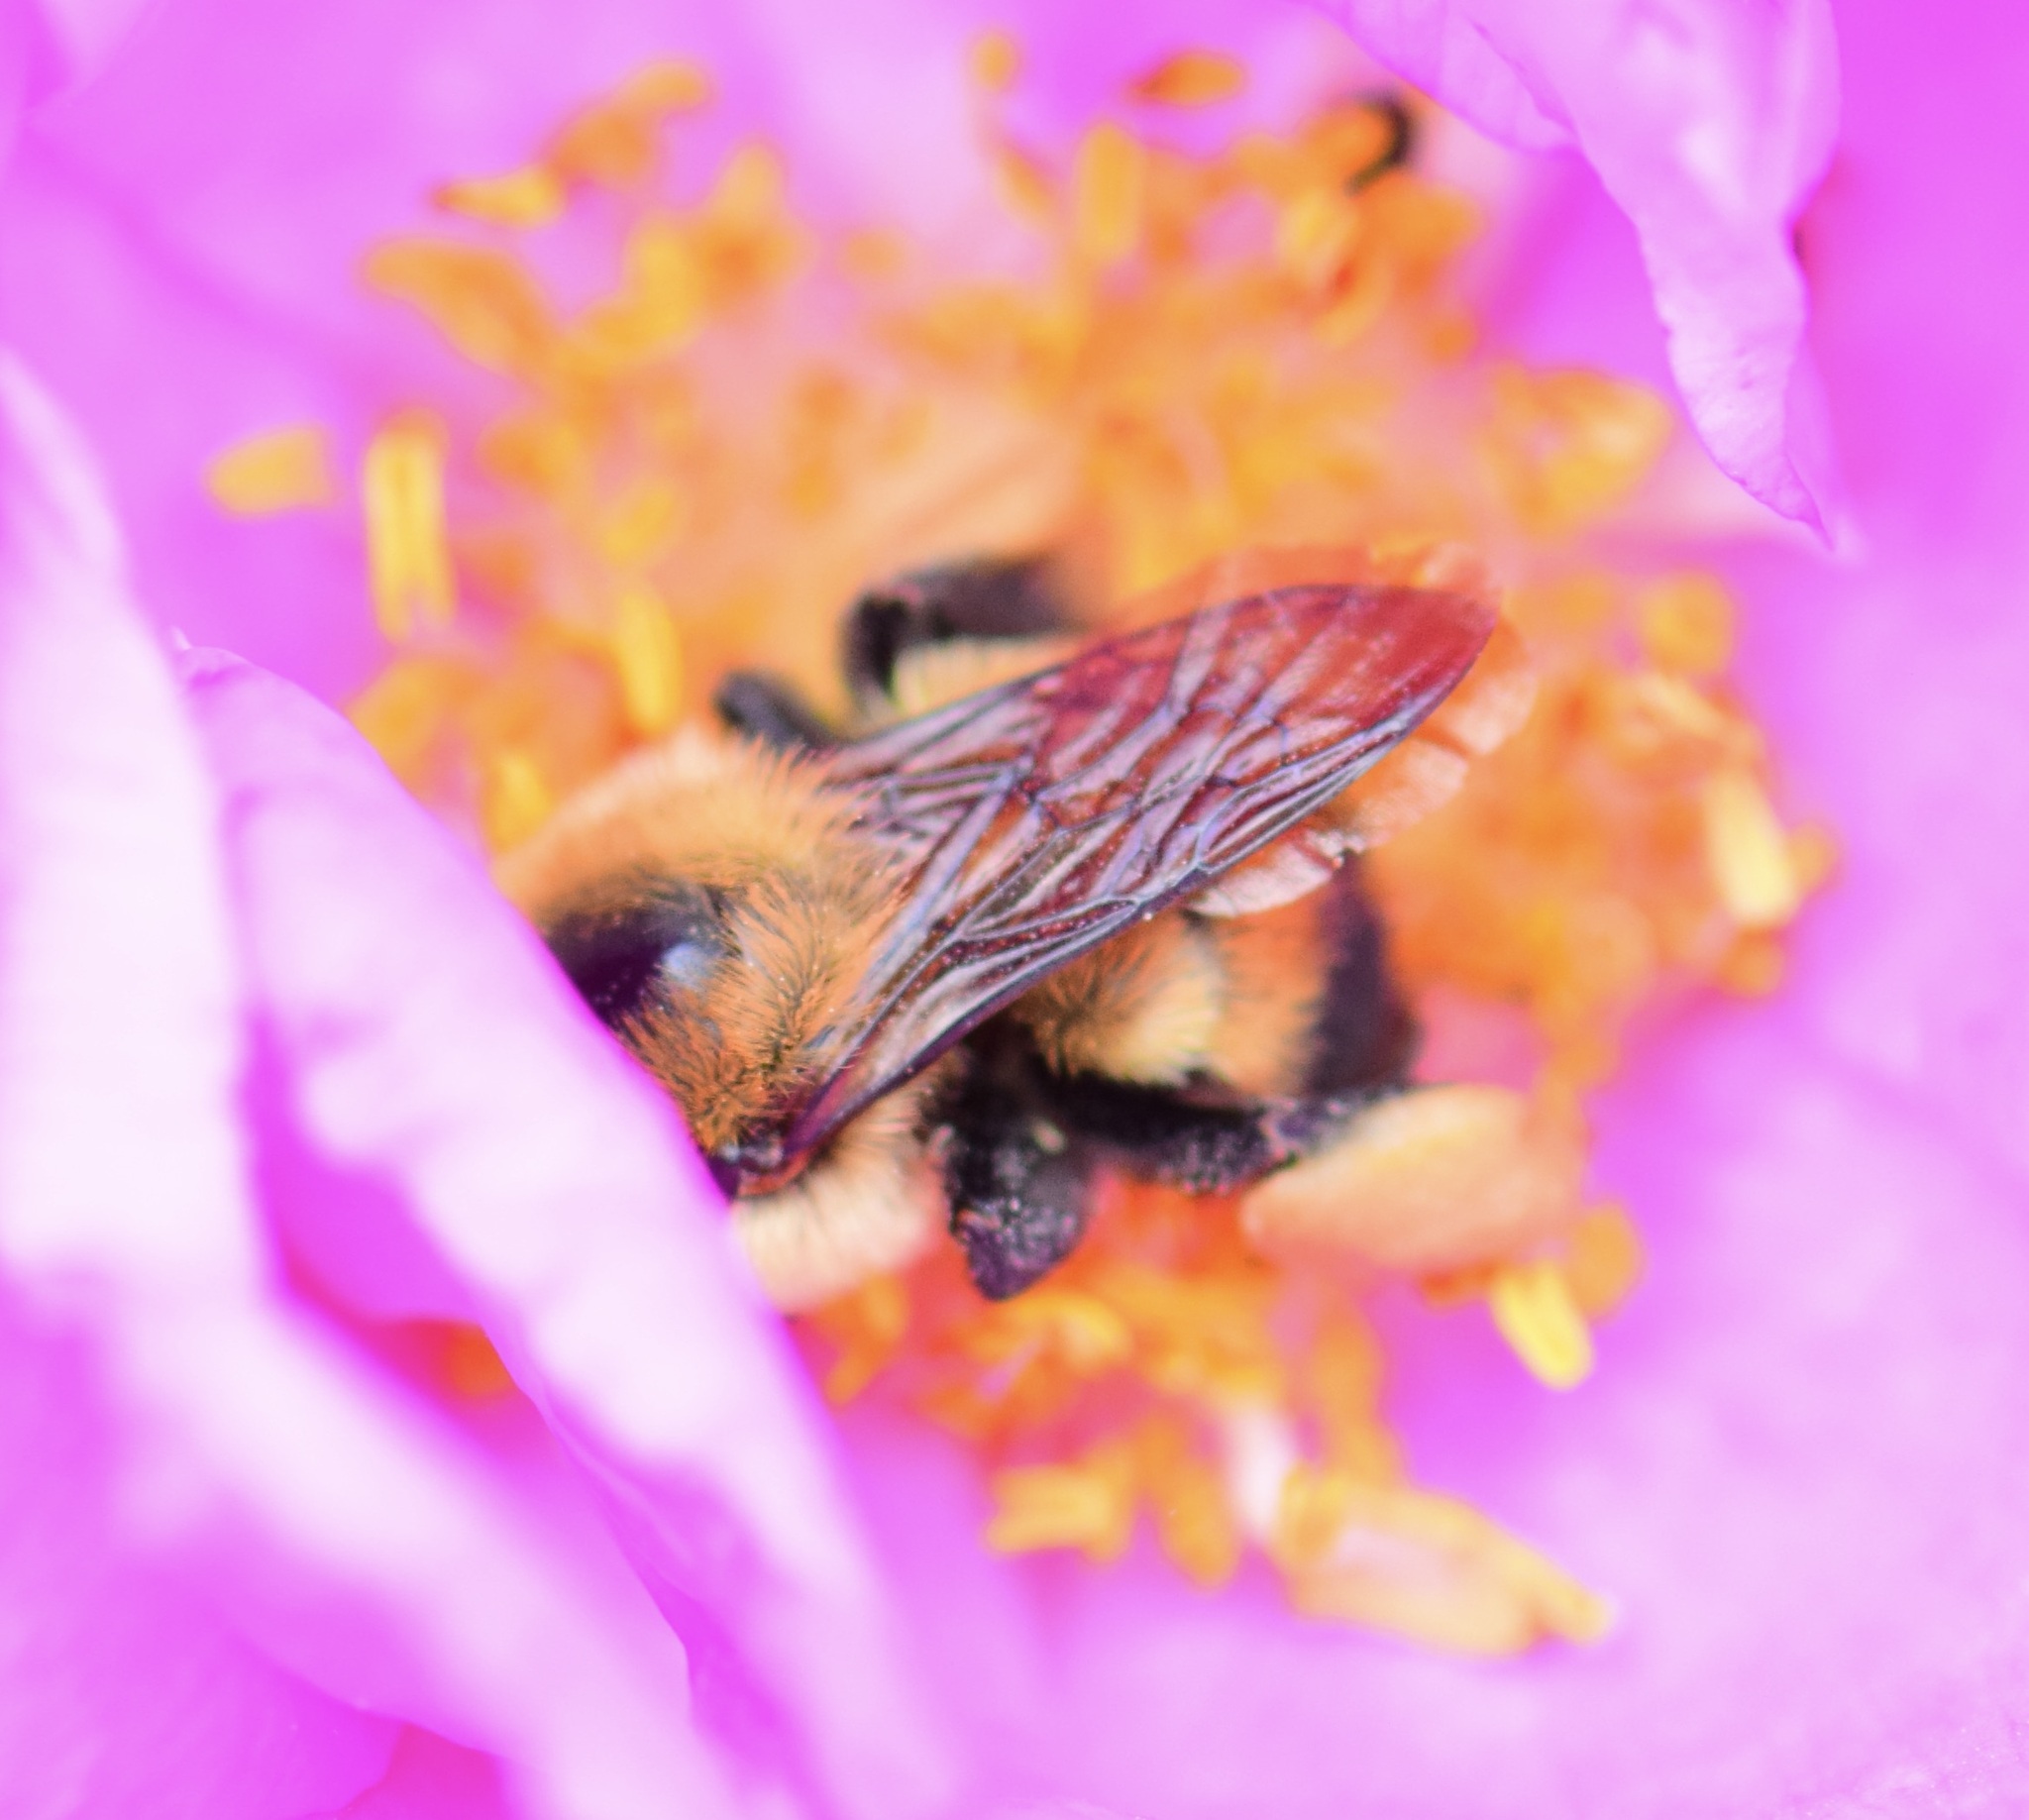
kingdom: Animalia
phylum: Arthropoda
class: Insecta
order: Hymenoptera
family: Apidae
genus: Bombus
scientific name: Bombus griseocollis
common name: Brown-belted bumble bee
